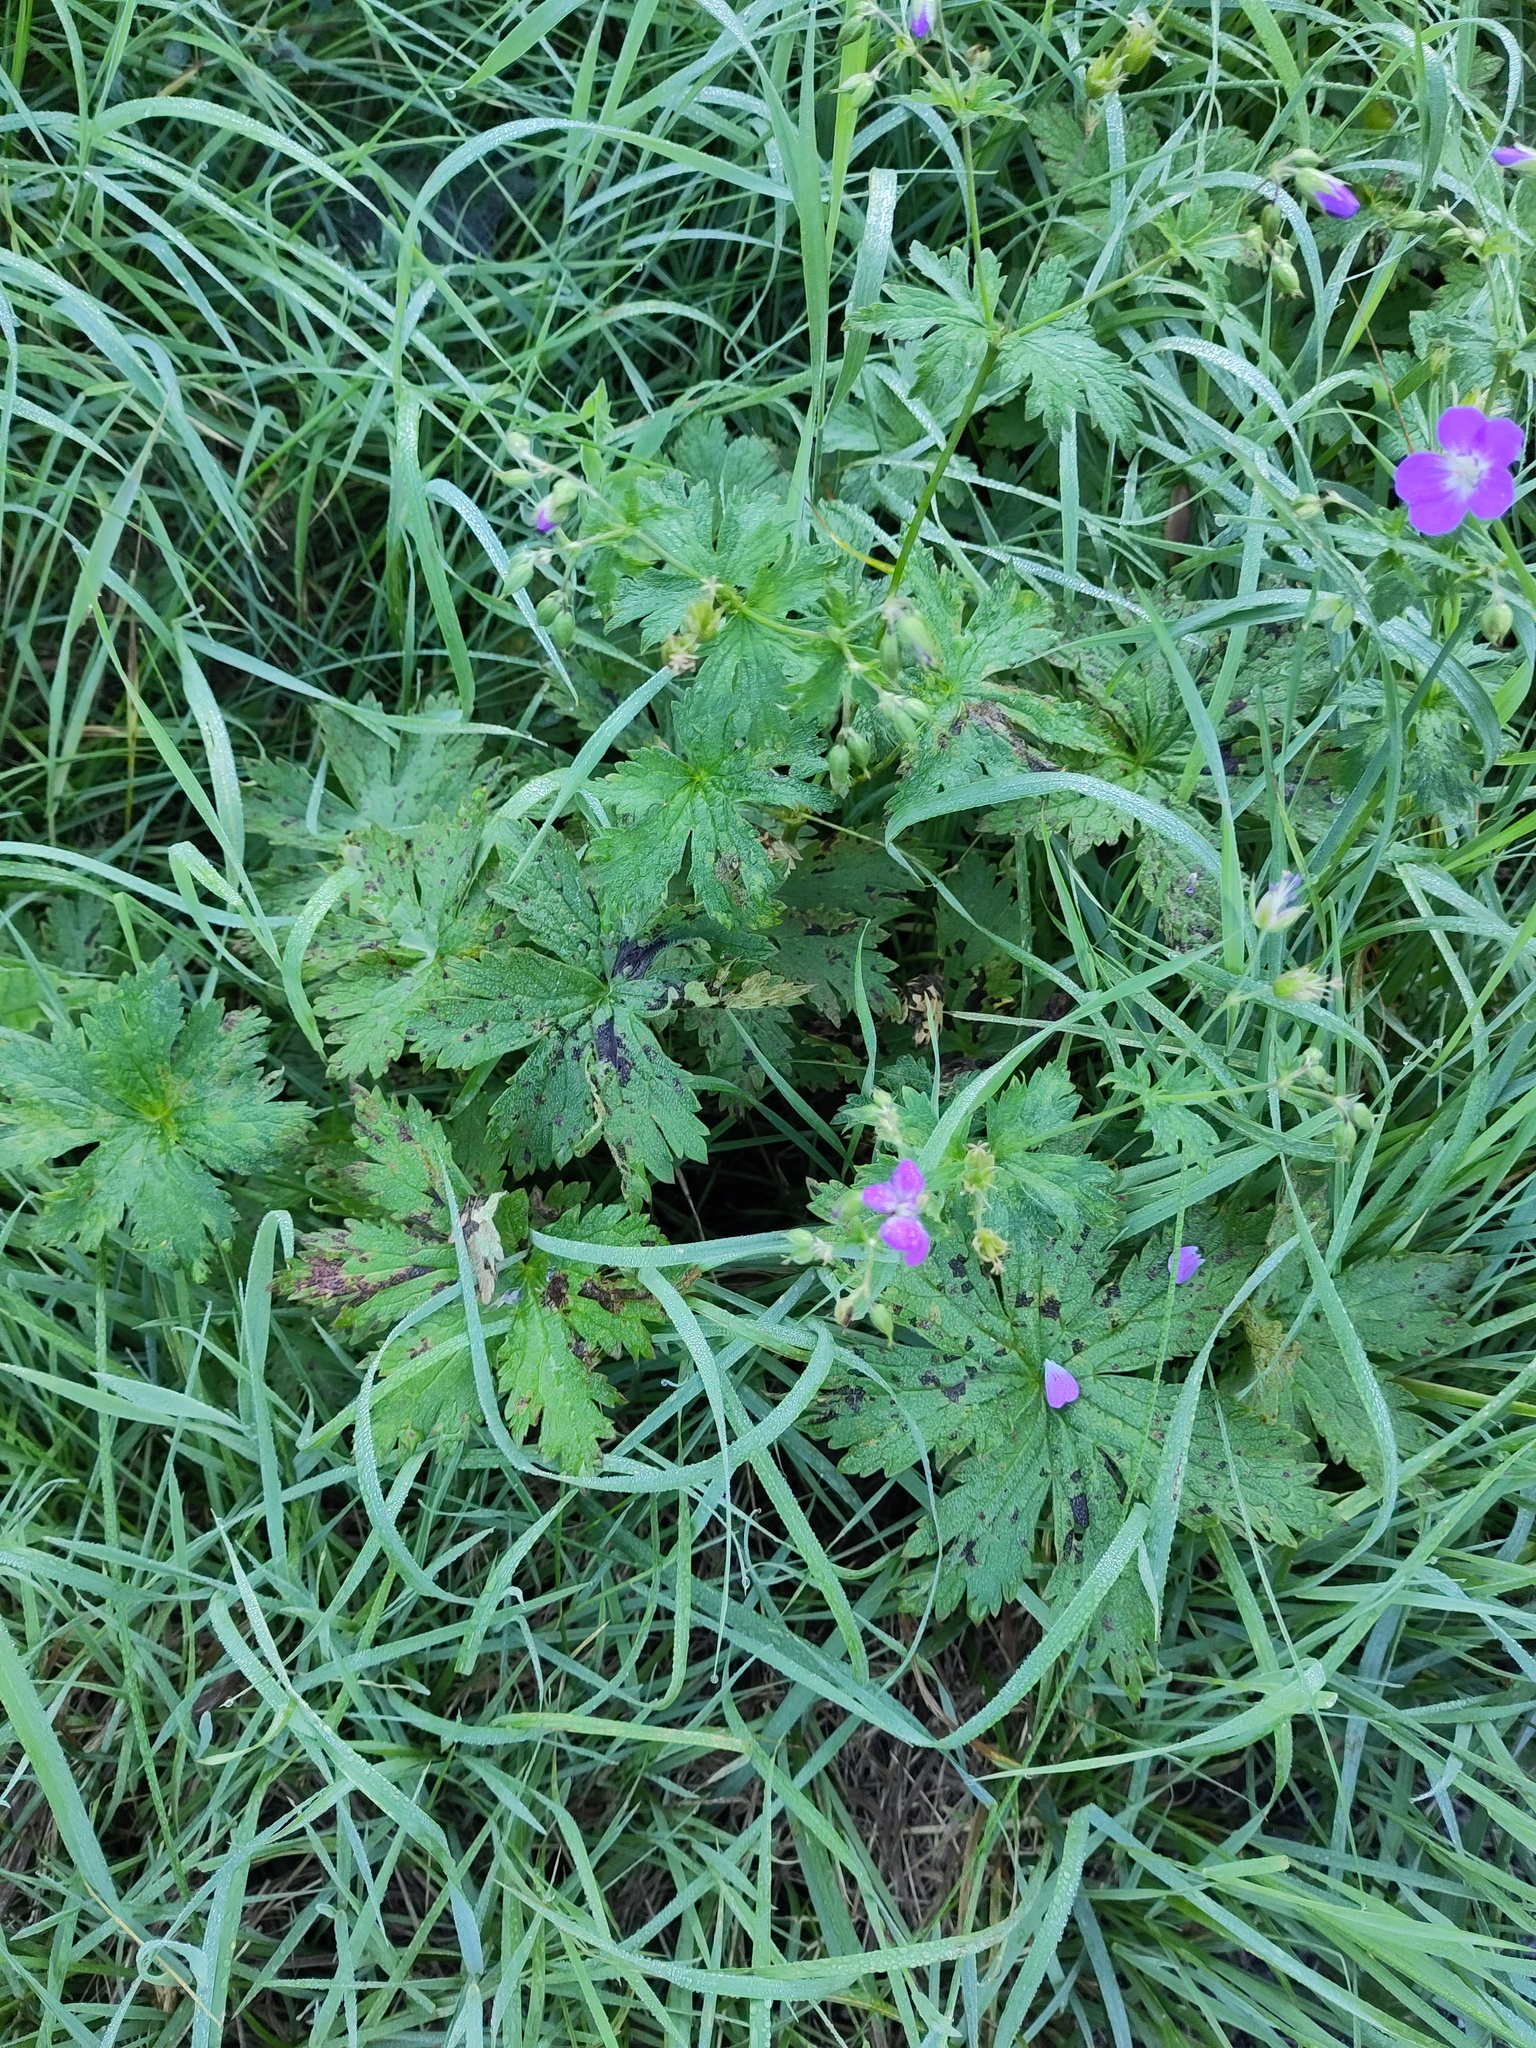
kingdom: Plantae
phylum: Tracheophyta
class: Magnoliopsida
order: Geraniales
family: Geraniaceae
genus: Geranium
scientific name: Geranium sylvaticum
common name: Wood crane's-bill
